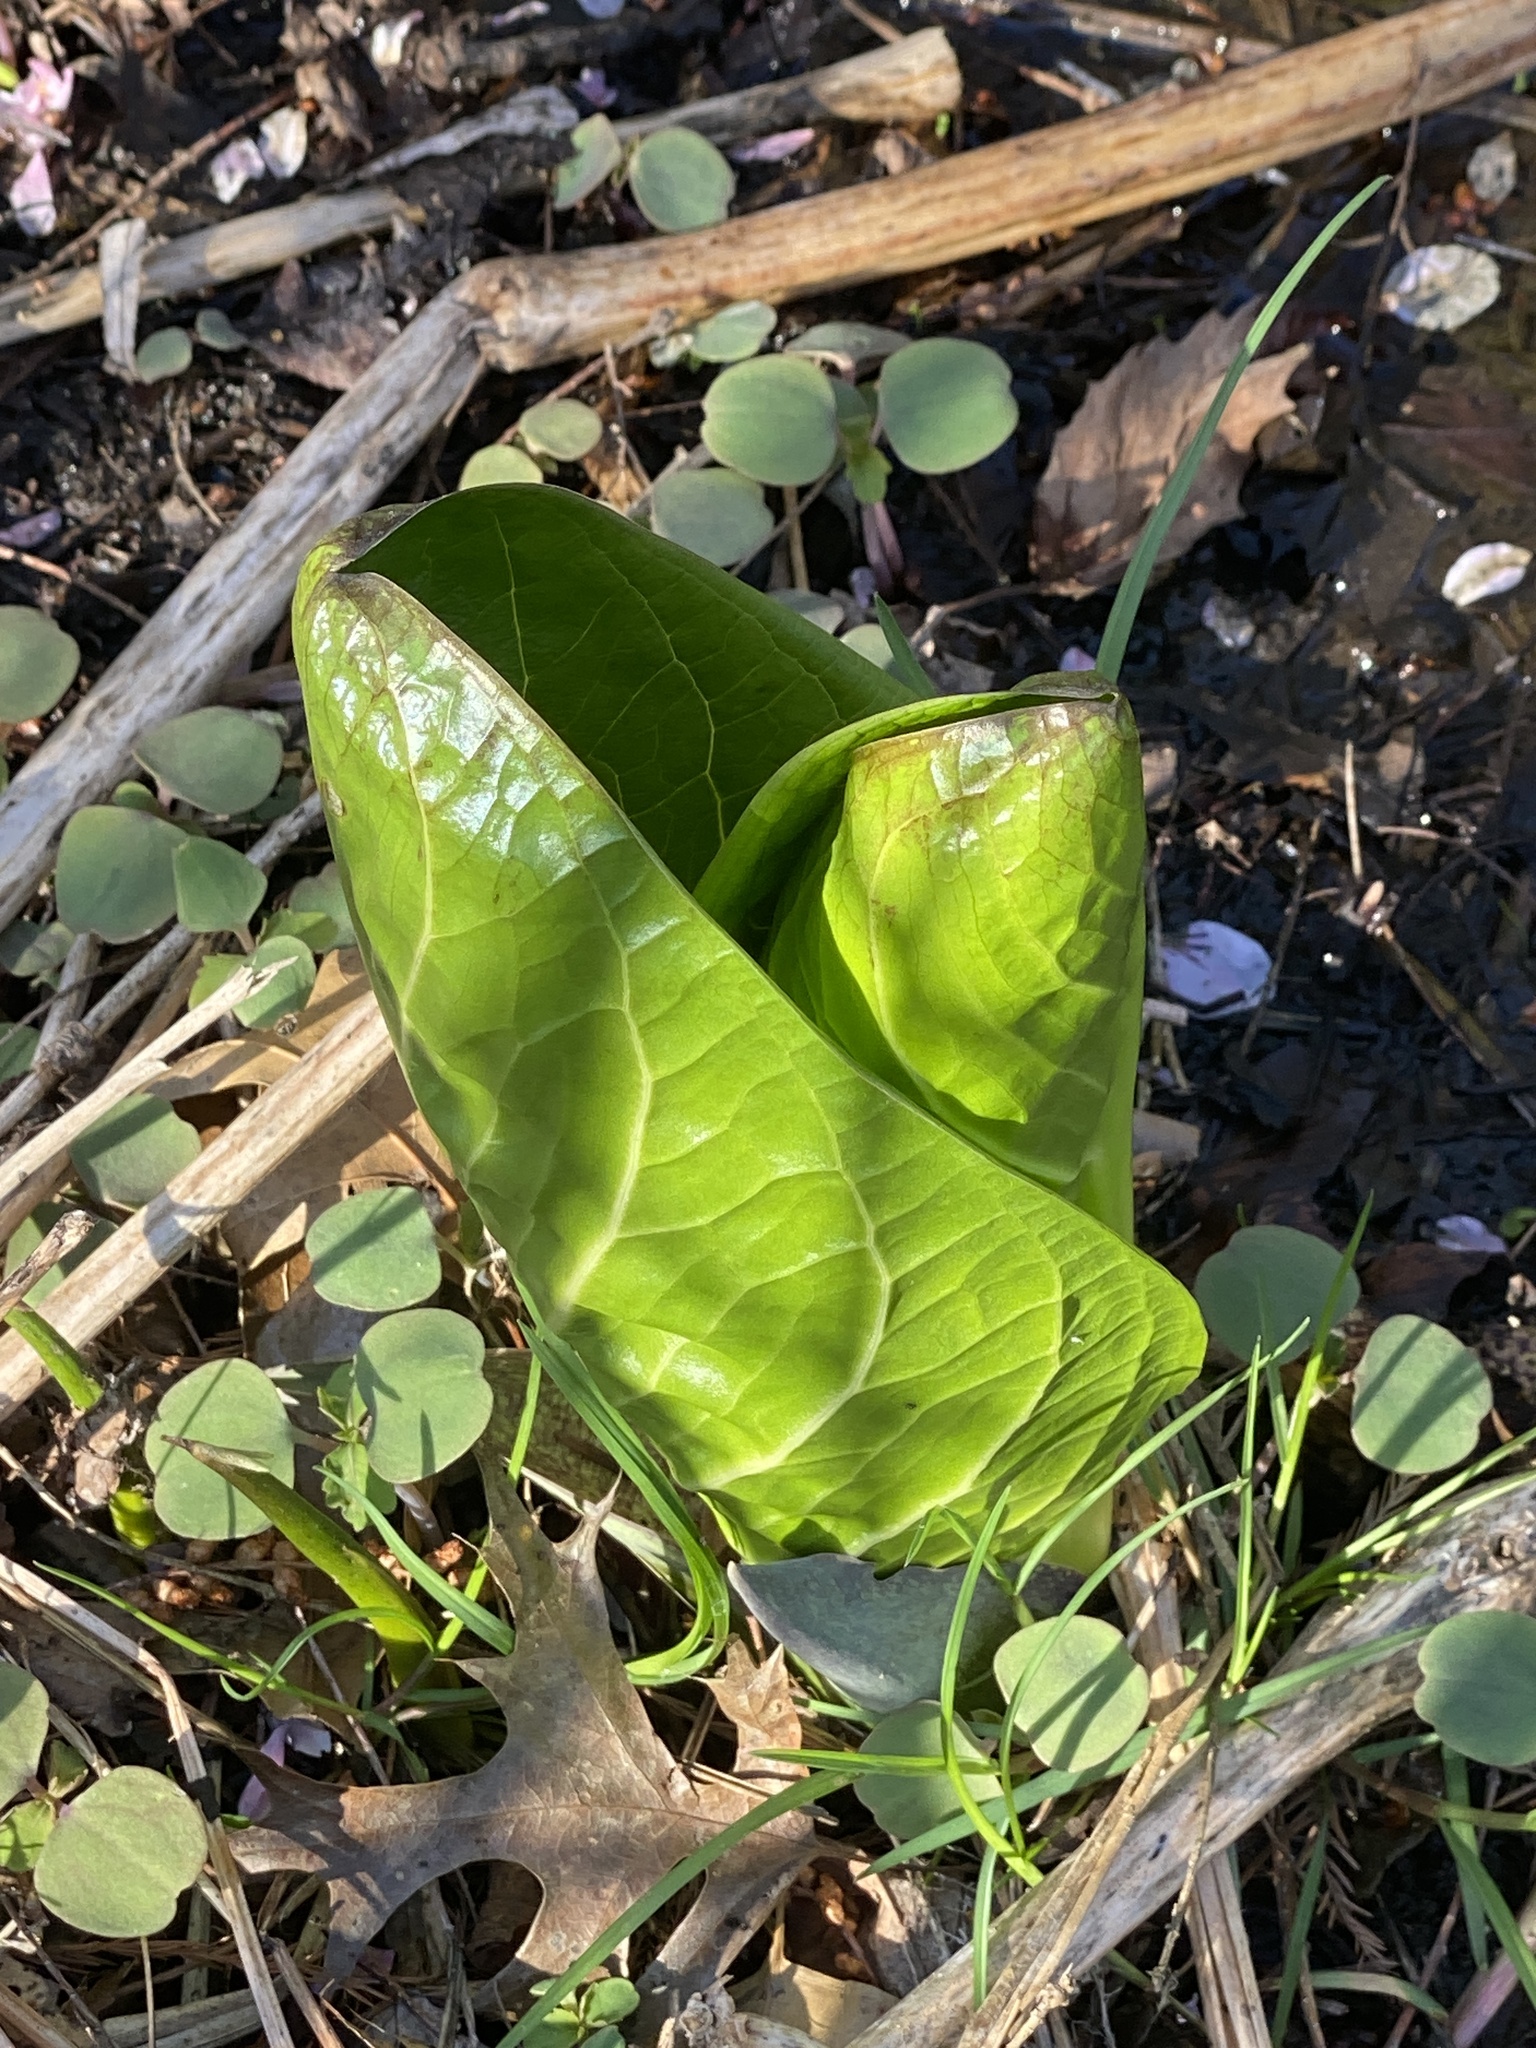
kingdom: Plantae
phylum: Tracheophyta
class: Liliopsida
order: Alismatales
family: Araceae
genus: Symplocarpus
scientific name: Symplocarpus foetidus
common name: Eastern skunk cabbage
